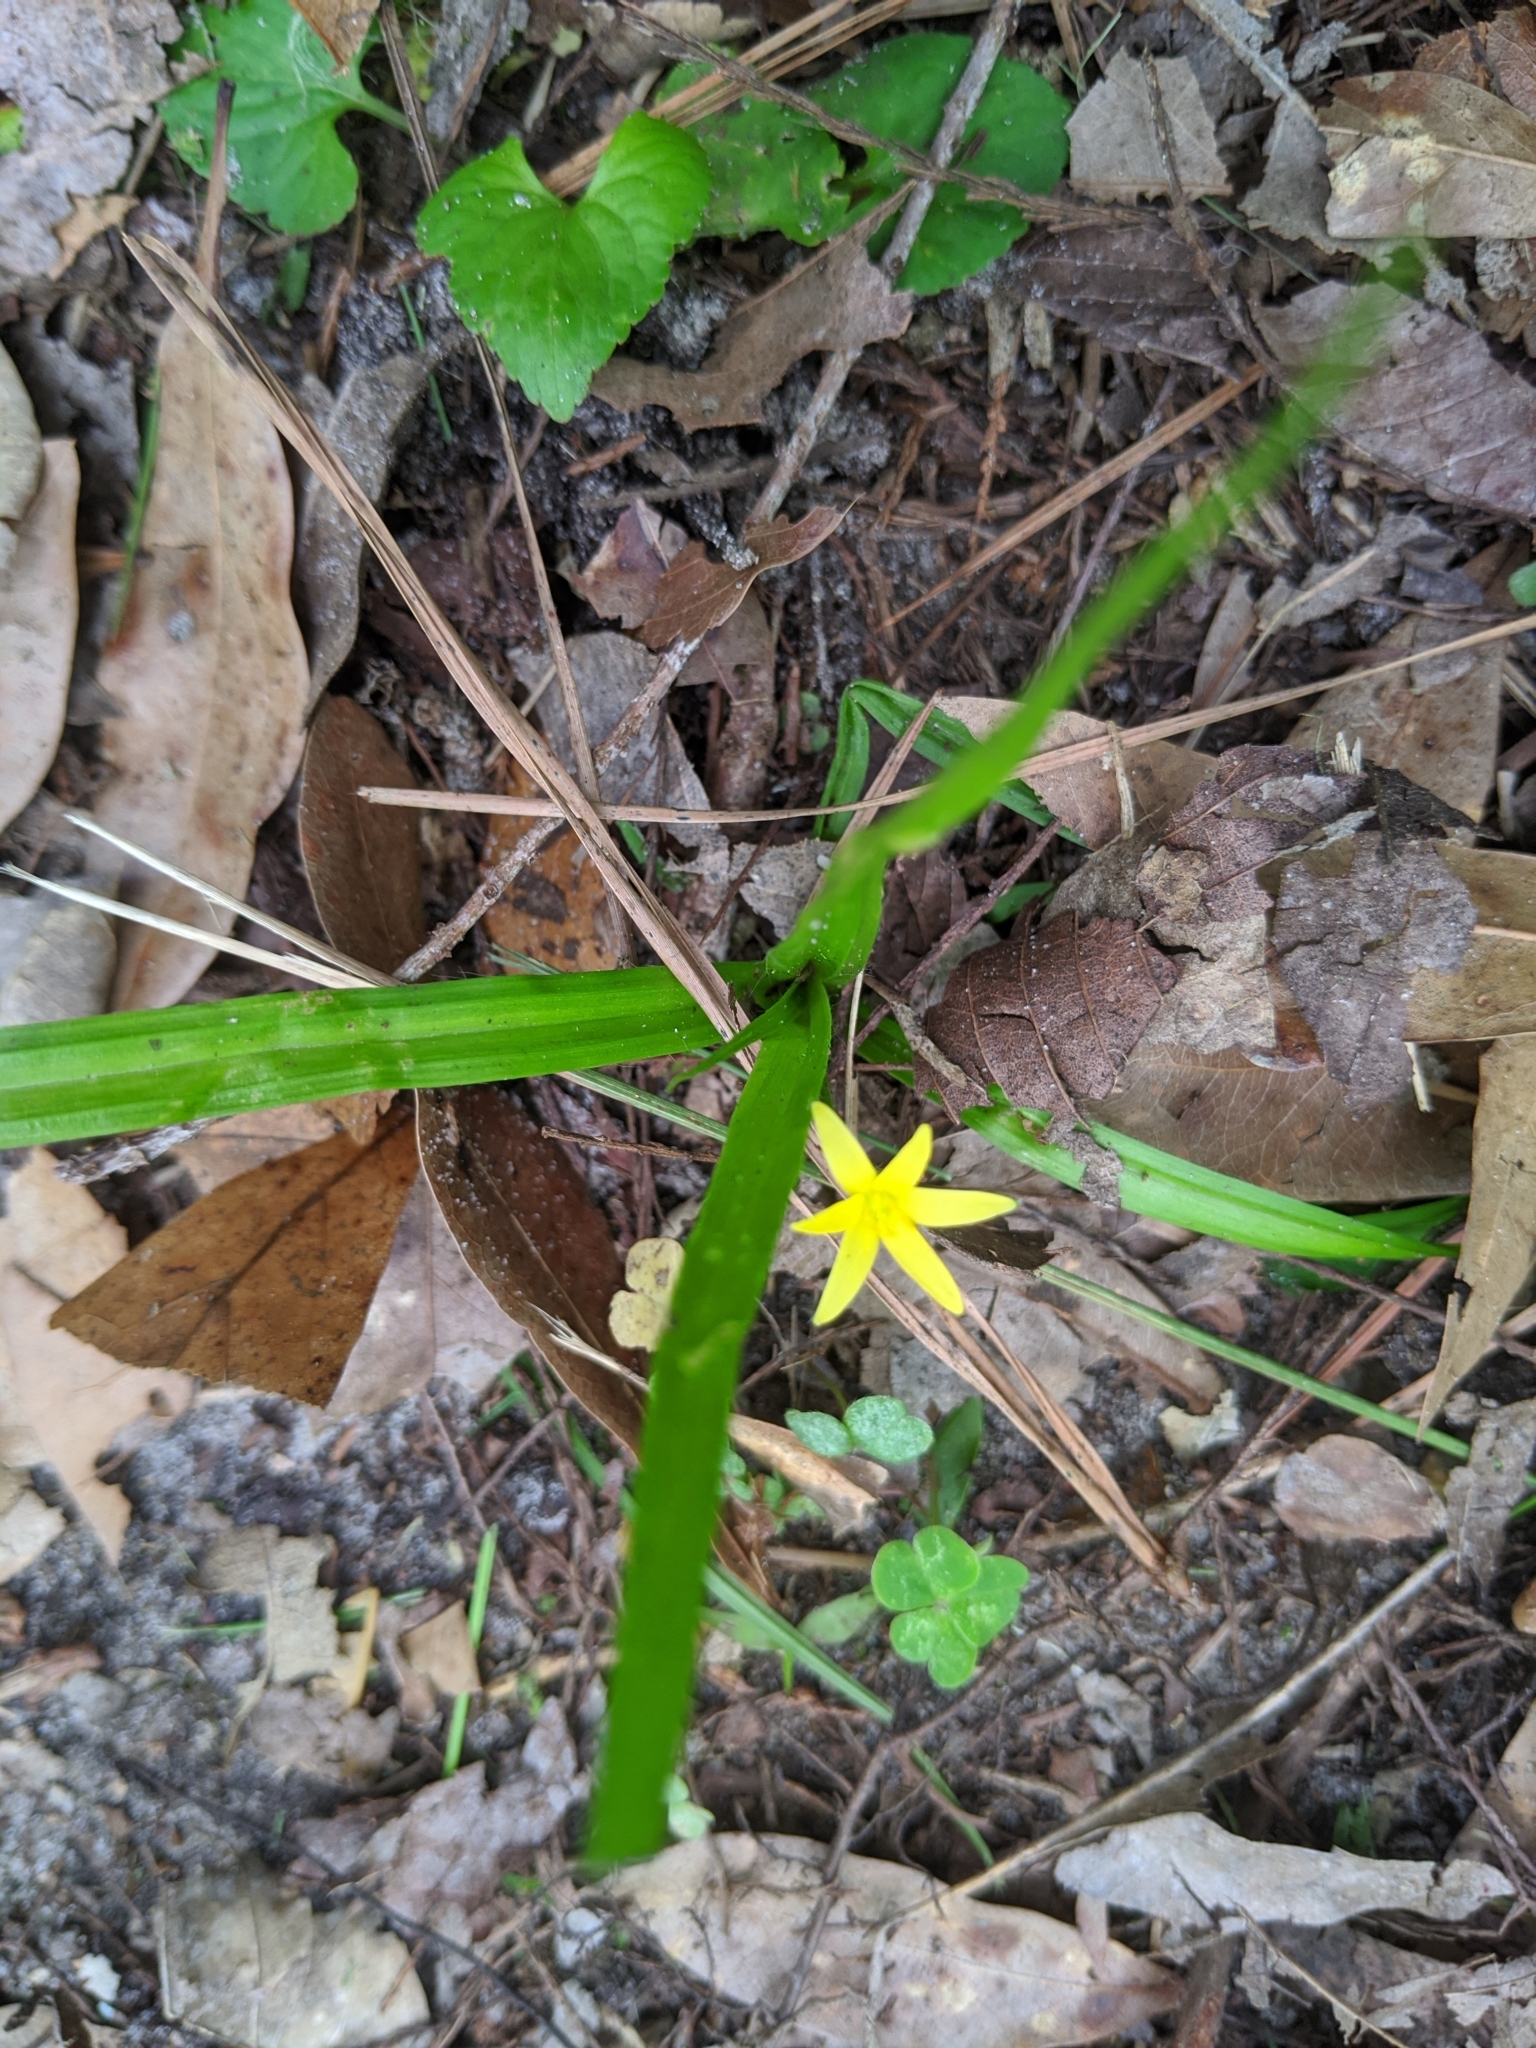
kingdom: Plantae
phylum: Tracheophyta
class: Liliopsida
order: Asparagales
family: Hypoxidaceae
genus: Hypoxis
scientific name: Hypoxis curtissii
